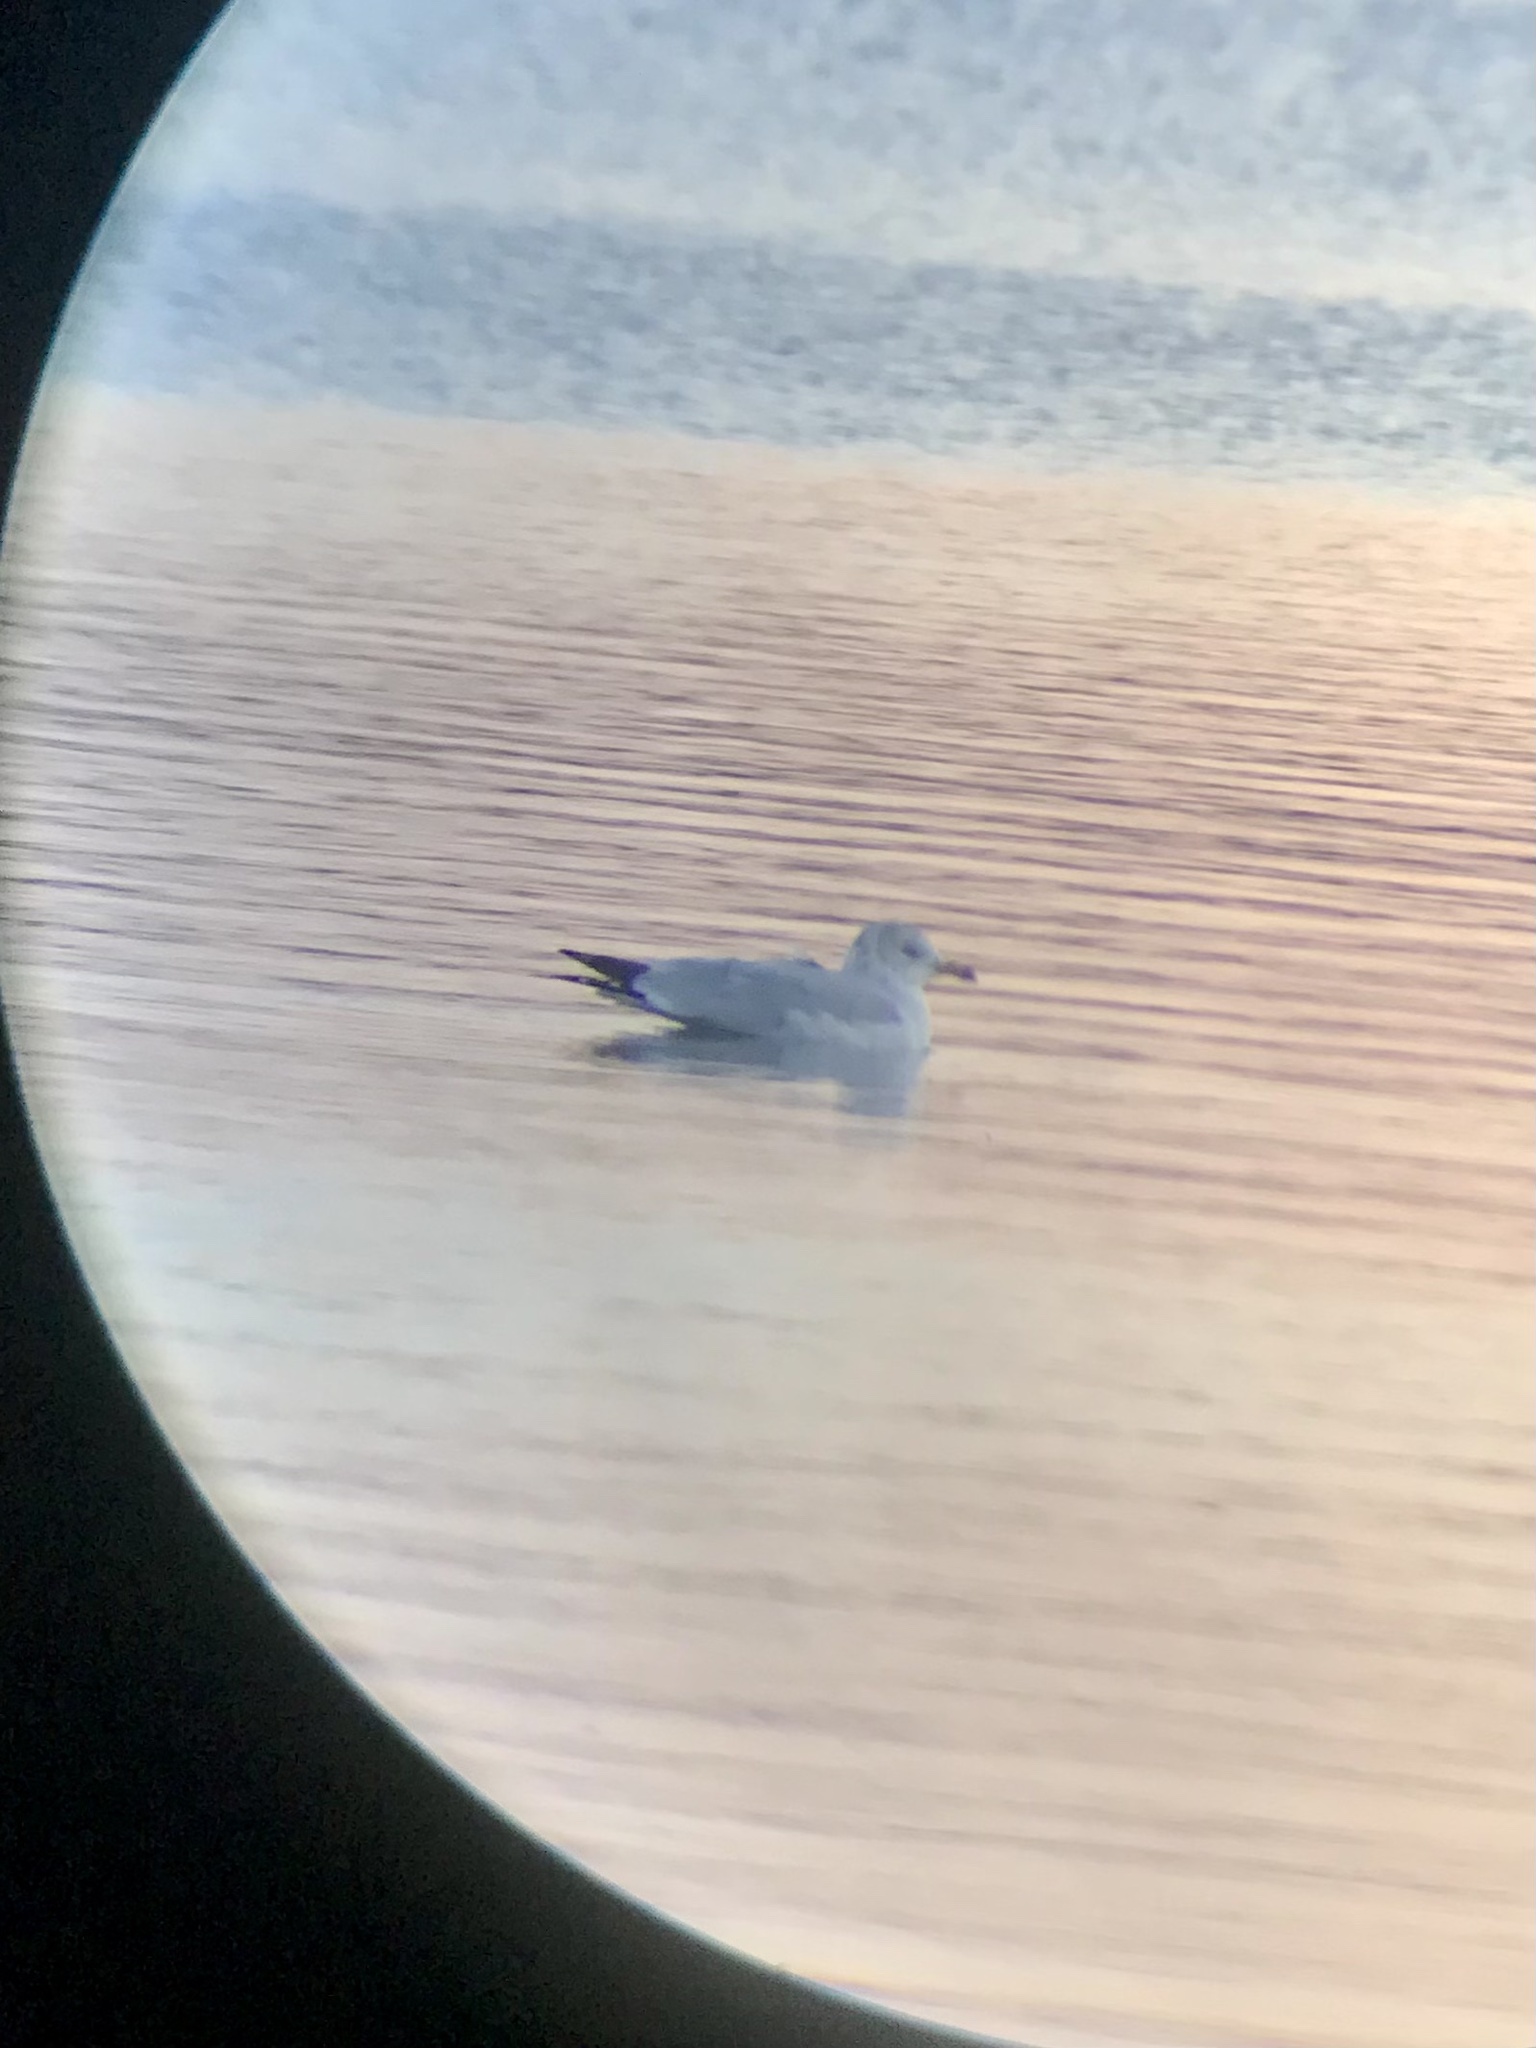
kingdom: Animalia
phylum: Chordata
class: Aves
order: Charadriiformes
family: Laridae
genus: Larus
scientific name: Larus delawarensis
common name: Ring-billed gull
